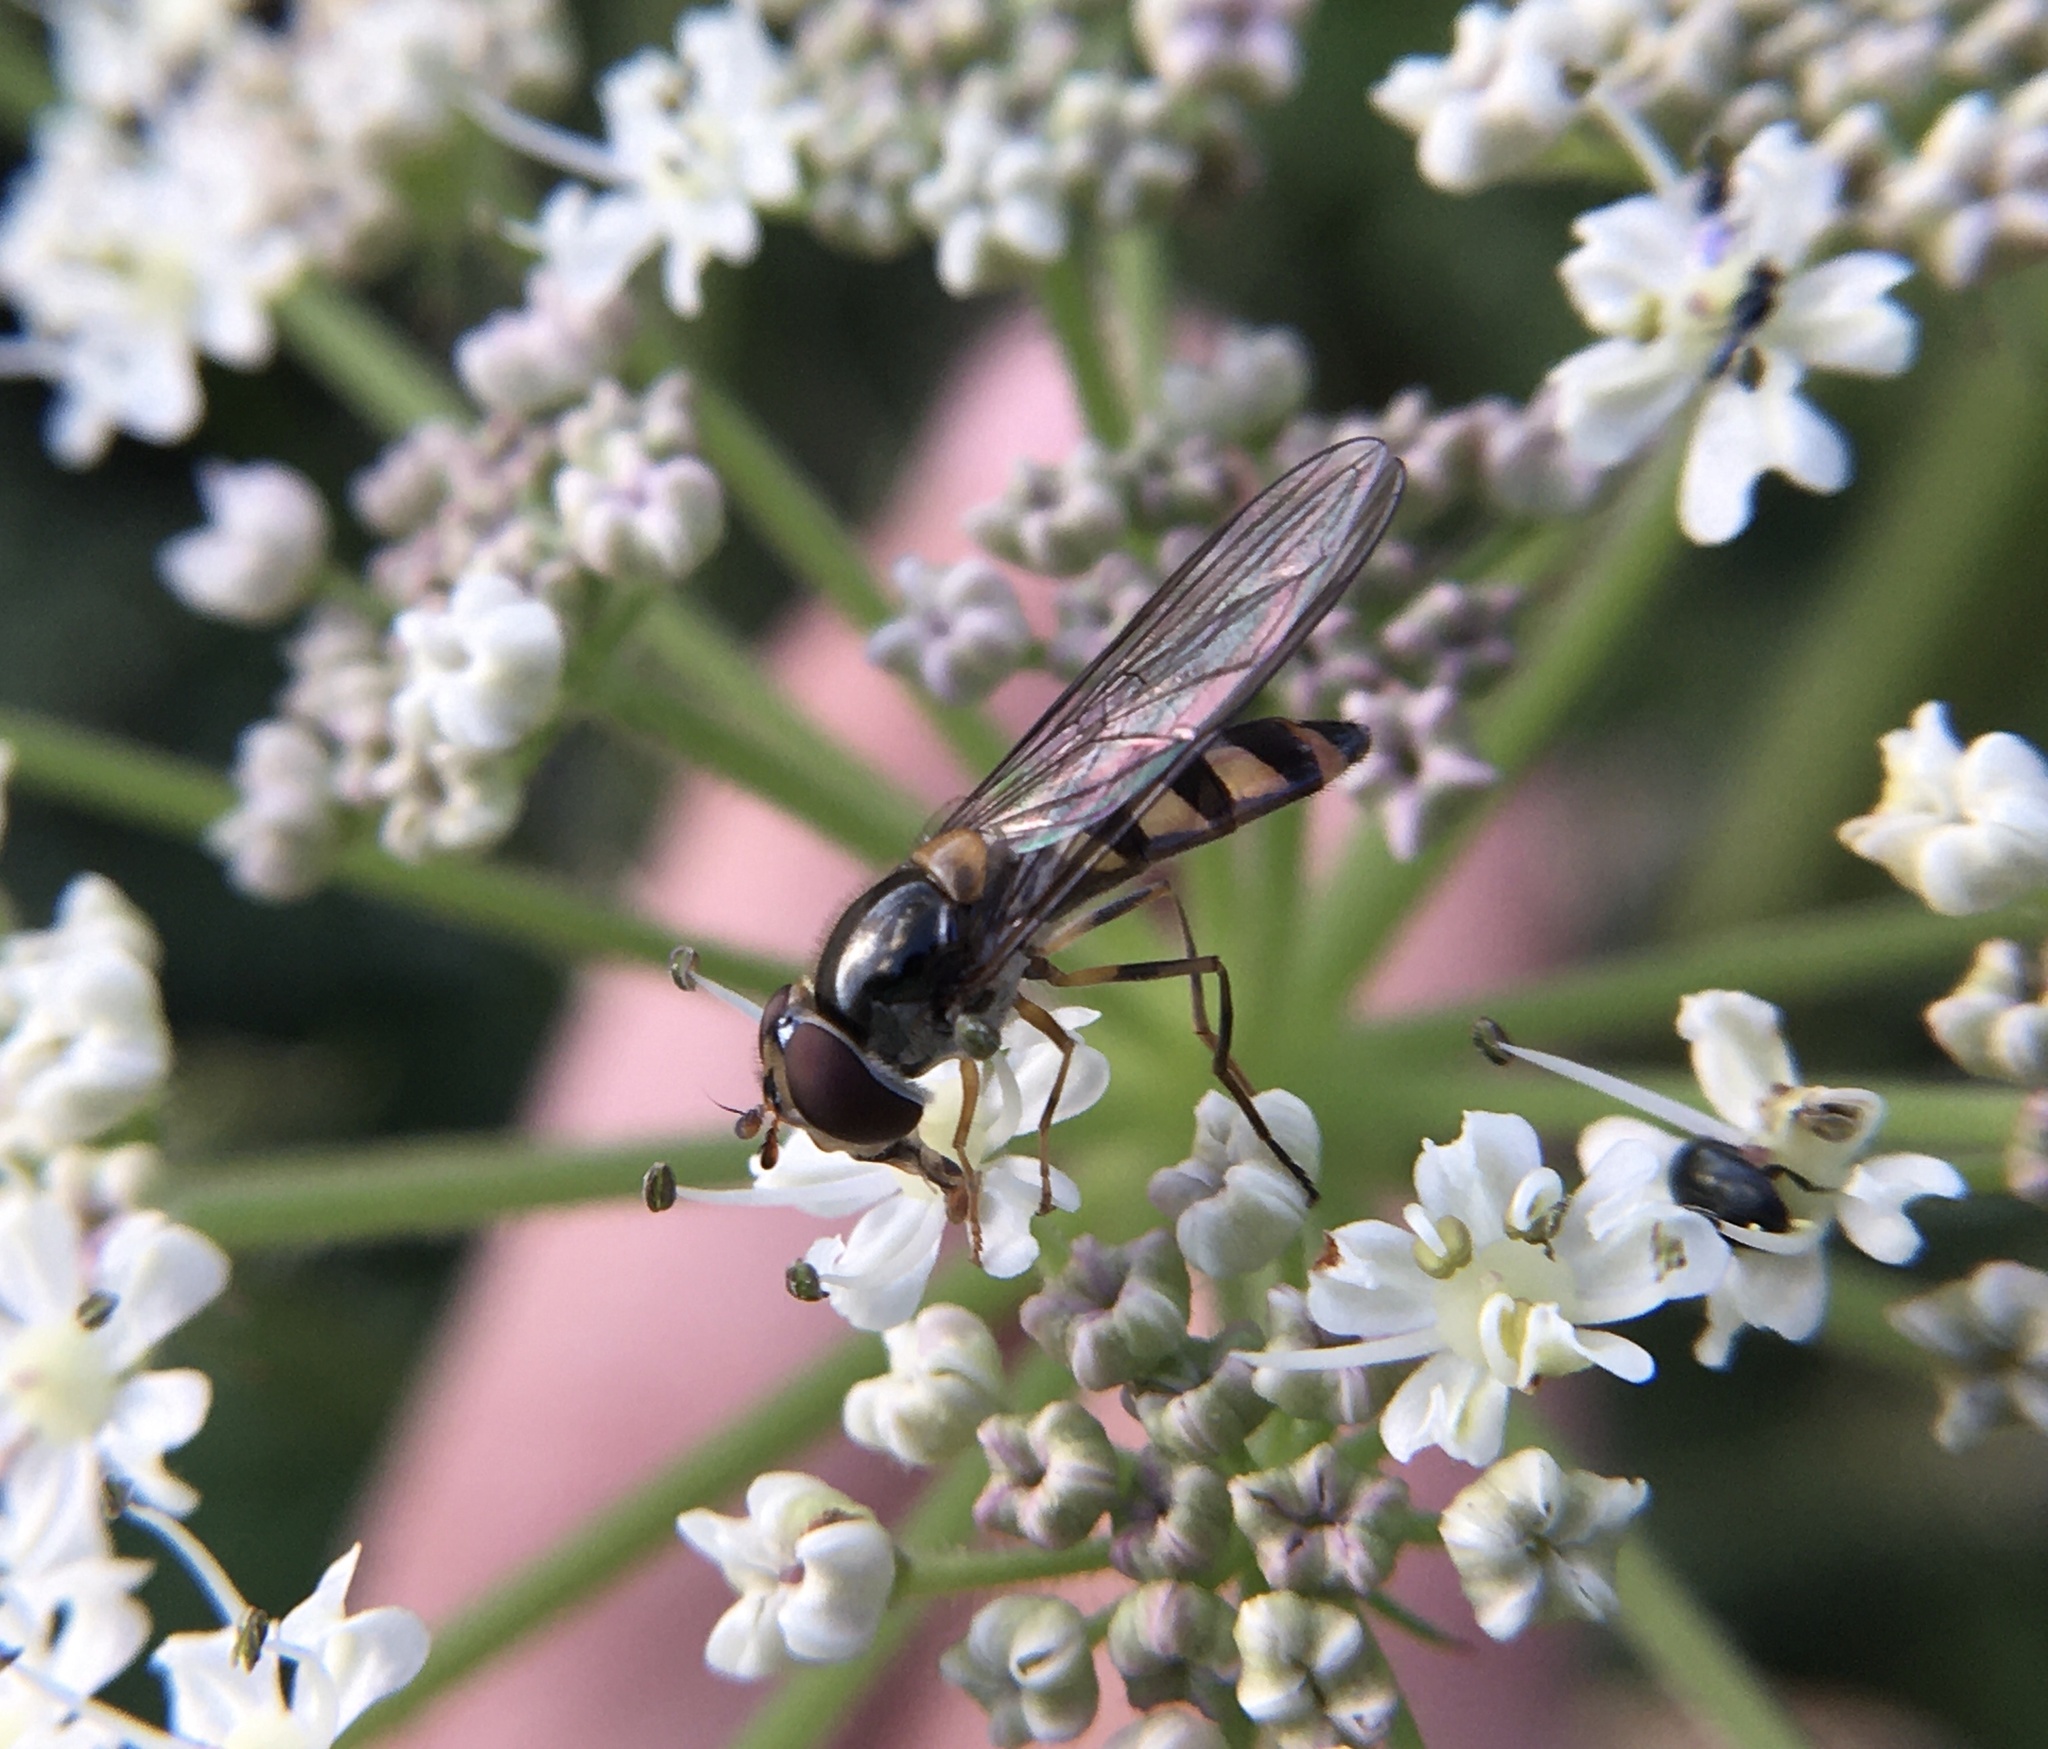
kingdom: Animalia
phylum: Arthropoda
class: Insecta
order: Diptera
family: Syrphidae
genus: Meliscaeva
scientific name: Meliscaeva auricollis
